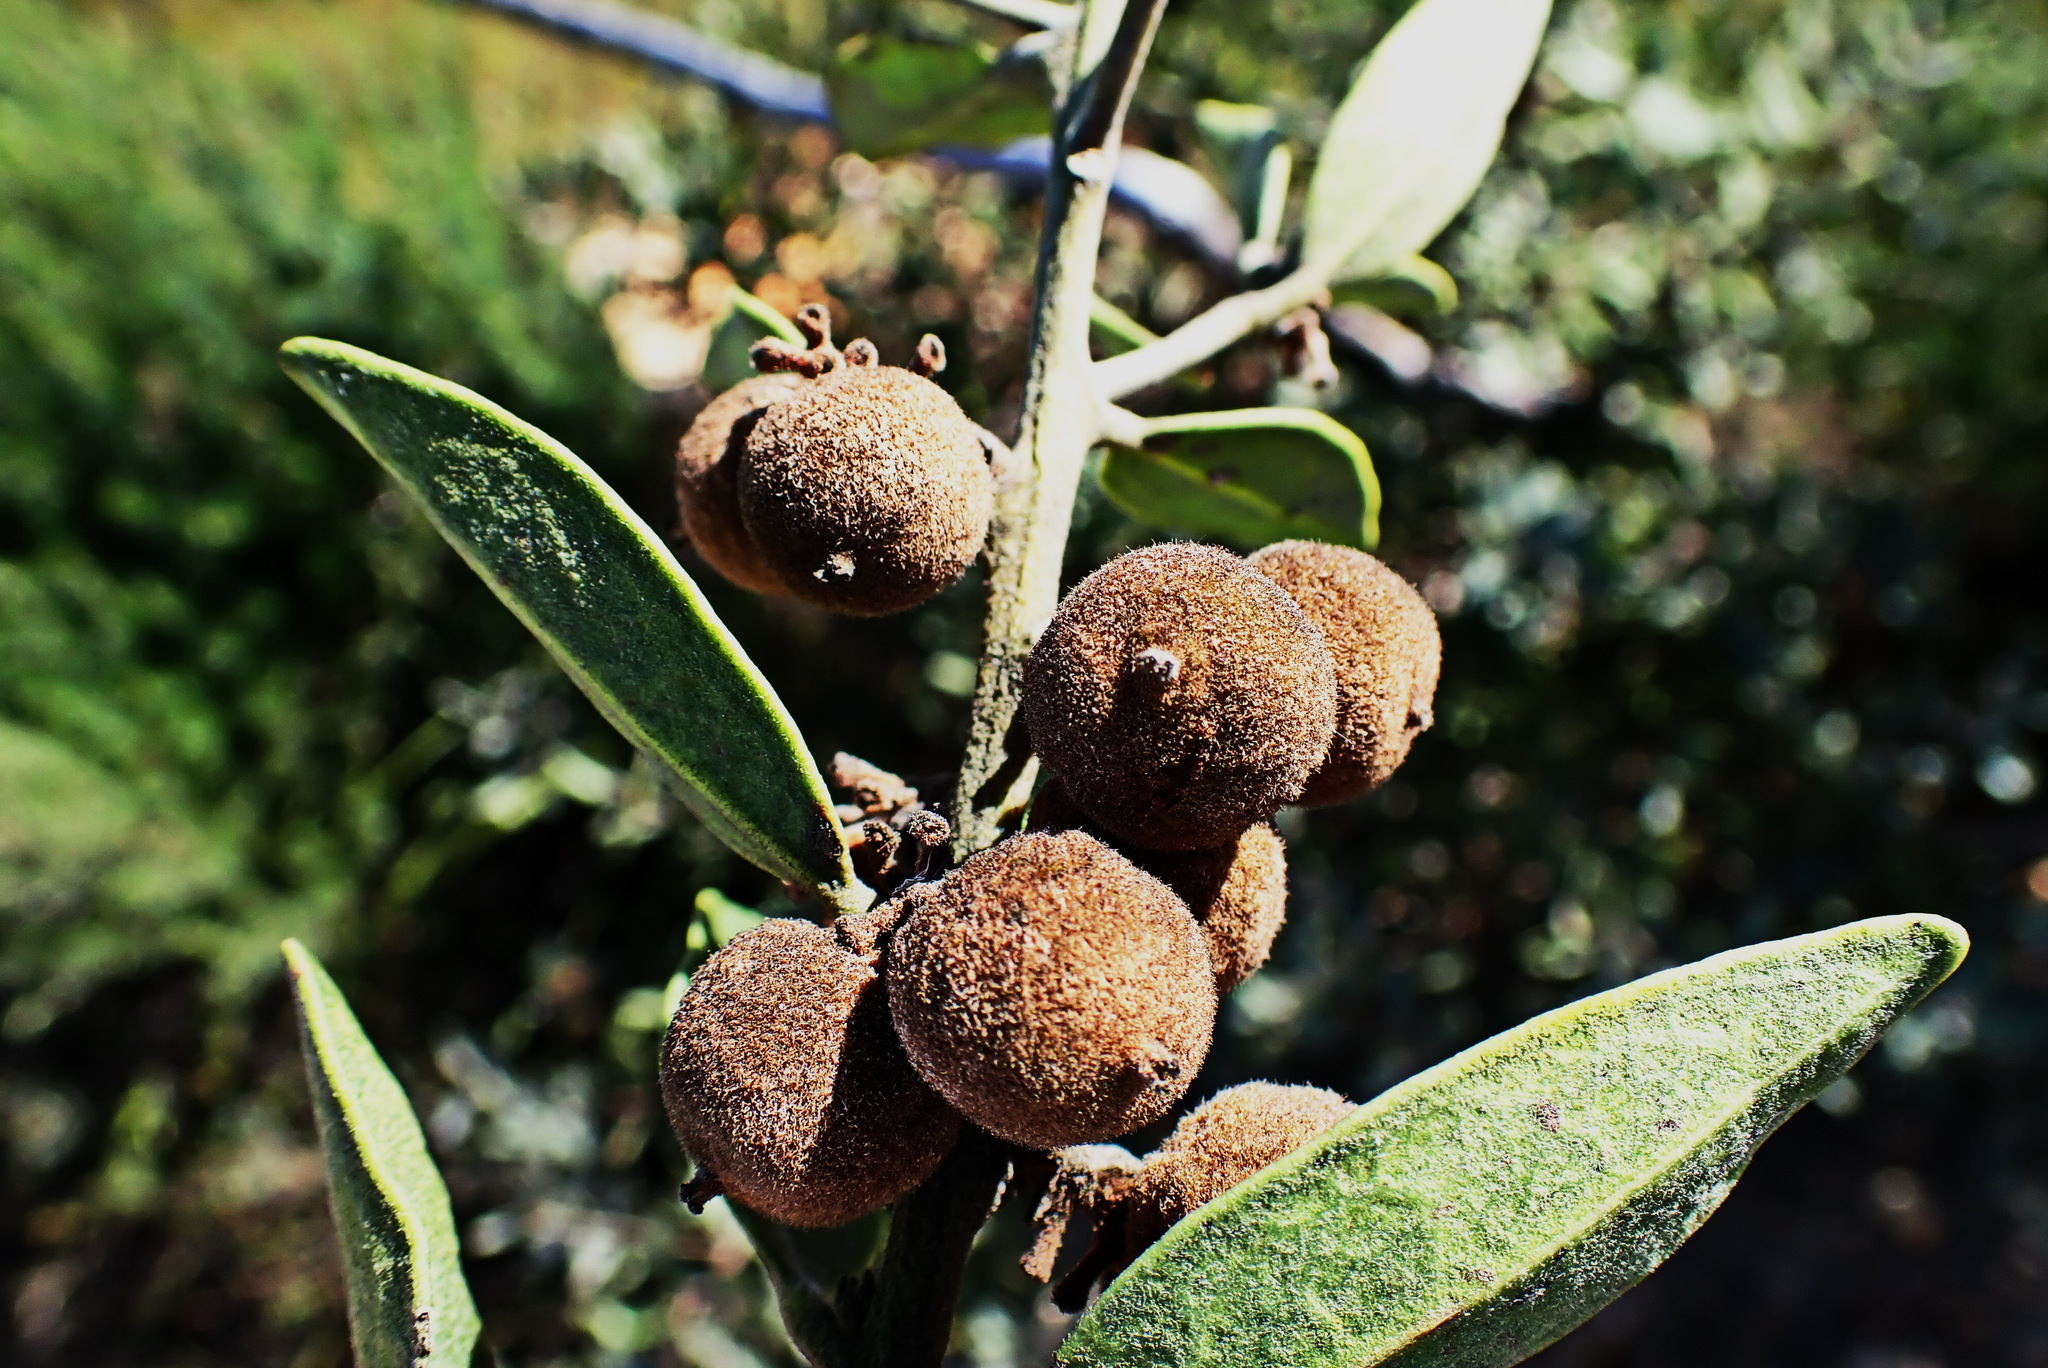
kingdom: Plantae
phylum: Tracheophyta
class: Magnoliopsida
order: Ericales
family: Ebenaceae
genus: Euclea
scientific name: Euclea polyandra
